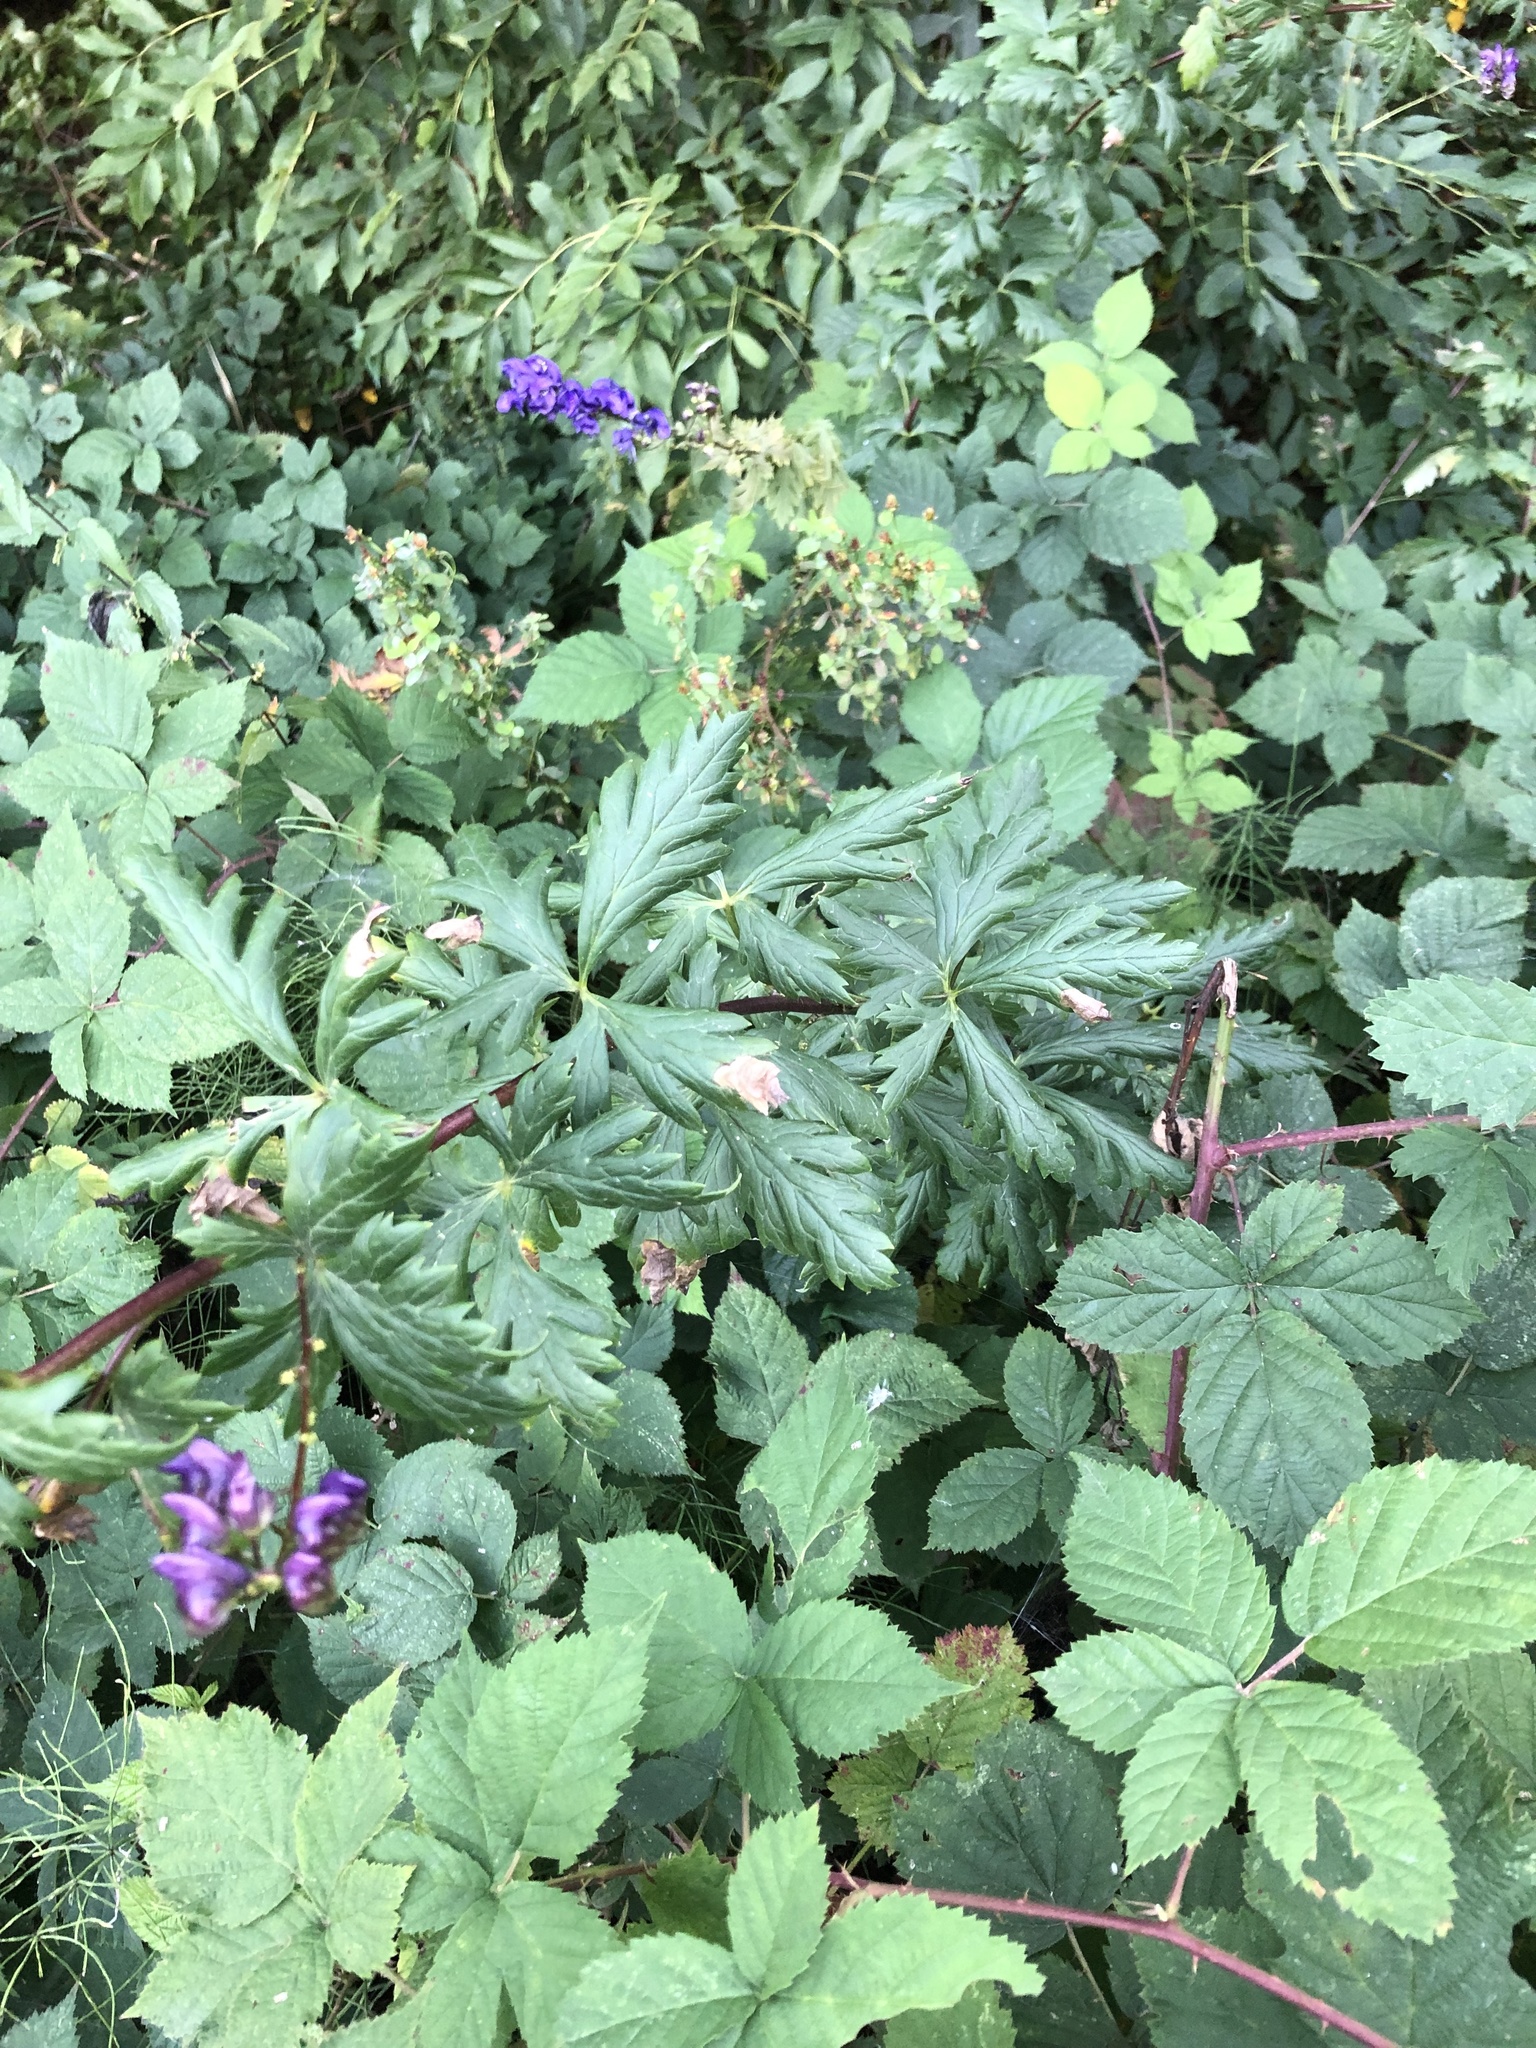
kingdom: Plantae
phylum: Tracheophyta
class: Magnoliopsida
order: Ranunculales
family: Ranunculaceae
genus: Aconitum
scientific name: Aconitum variegatum
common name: Manchurian monkshood
